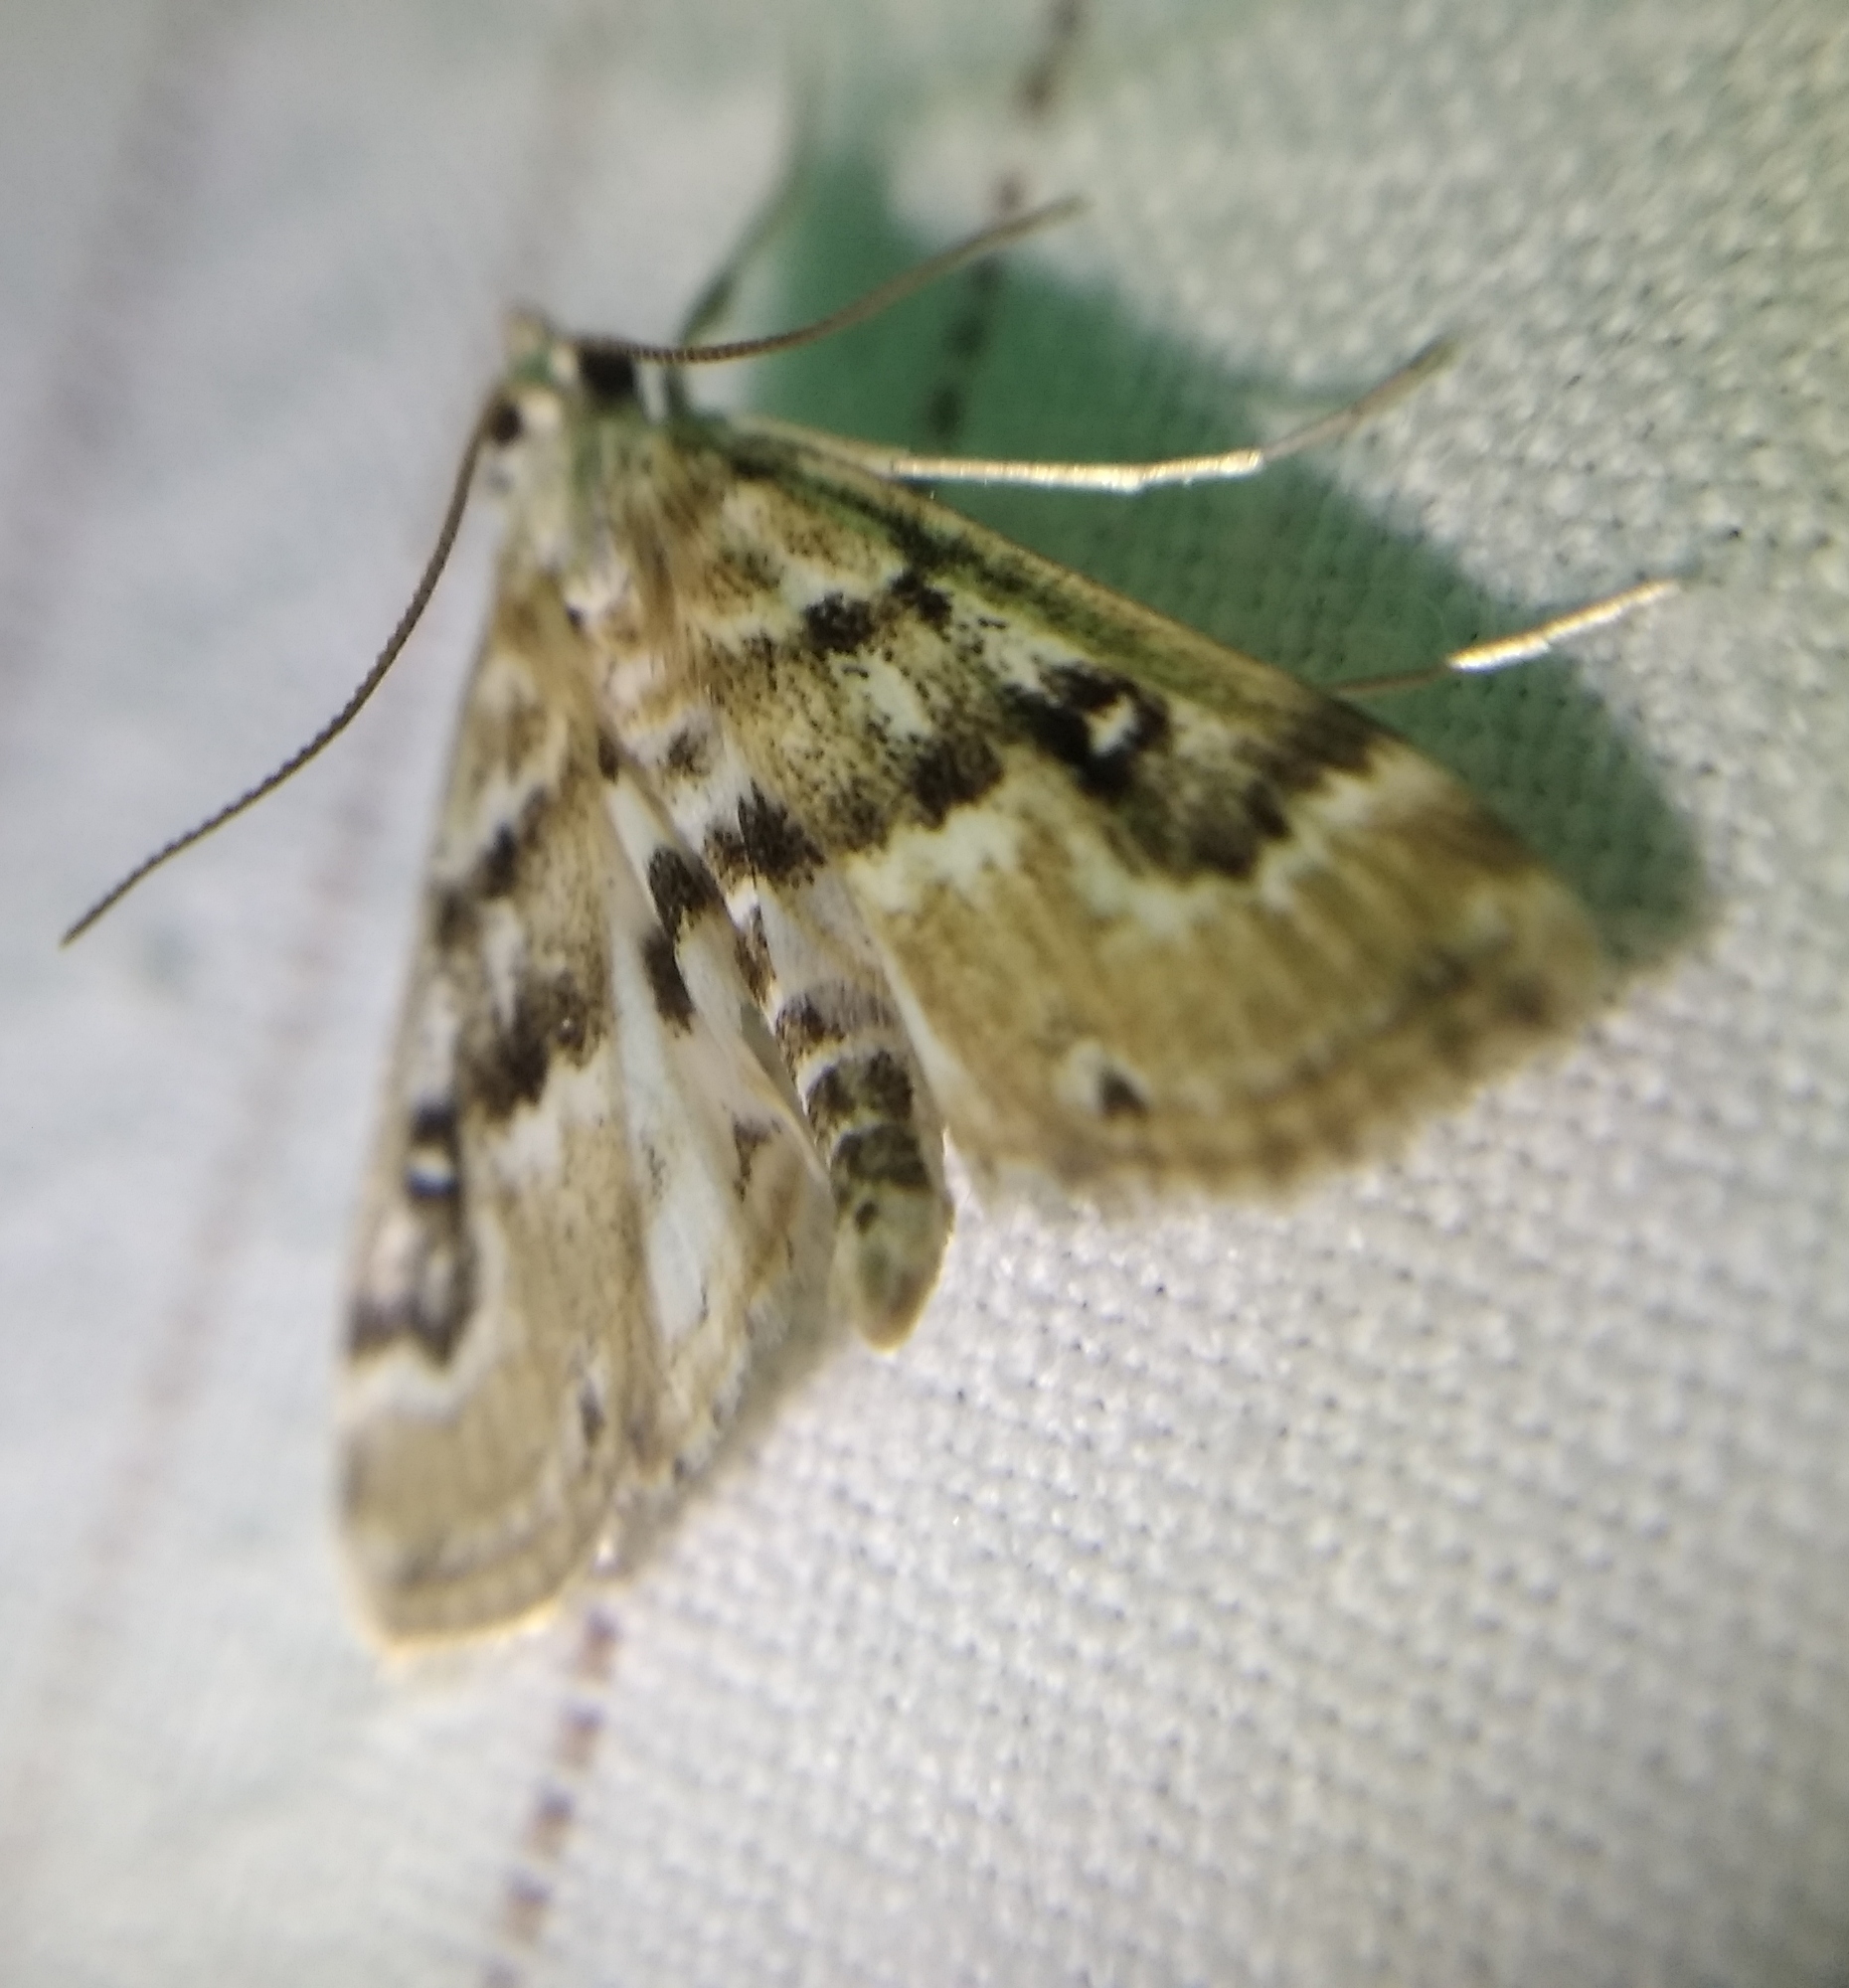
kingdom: Animalia
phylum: Arthropoda
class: Insecta
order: Lepidoptera
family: Crambidae
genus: Parapoynx
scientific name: Parapoynx stratiotata
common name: Ringed china-mark
